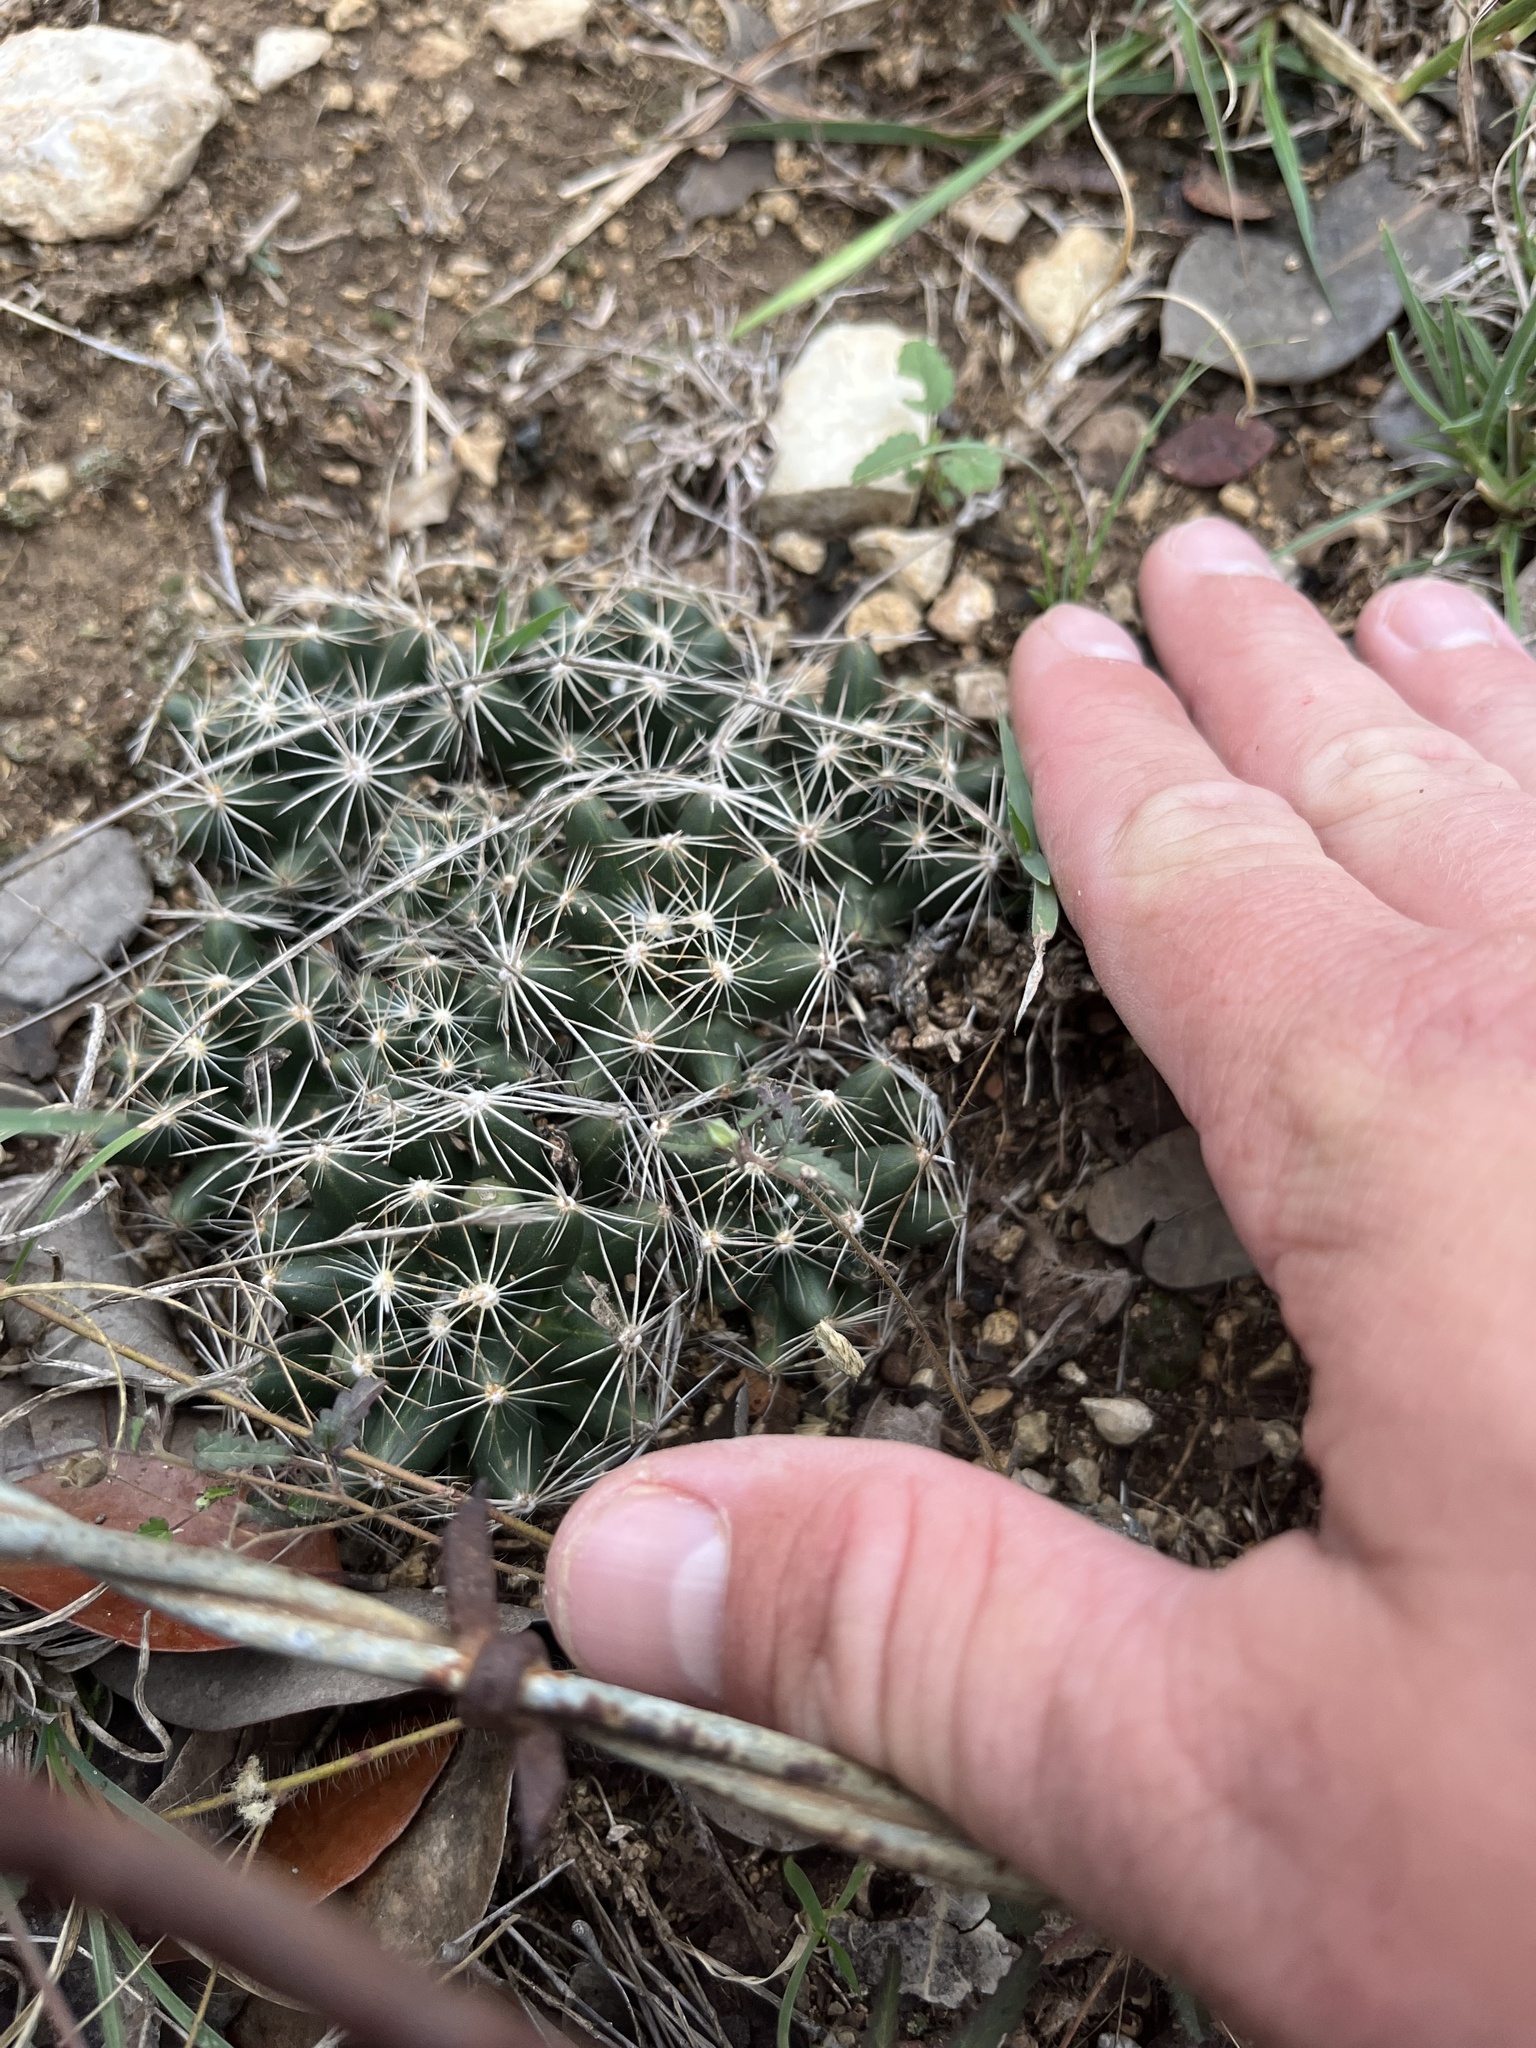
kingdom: Plantae
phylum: Tracheophyta
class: Magnoliopsida
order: Caryophyllales
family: Cactaceae
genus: Pelecyphora
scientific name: Pelecyphora missouriensis
